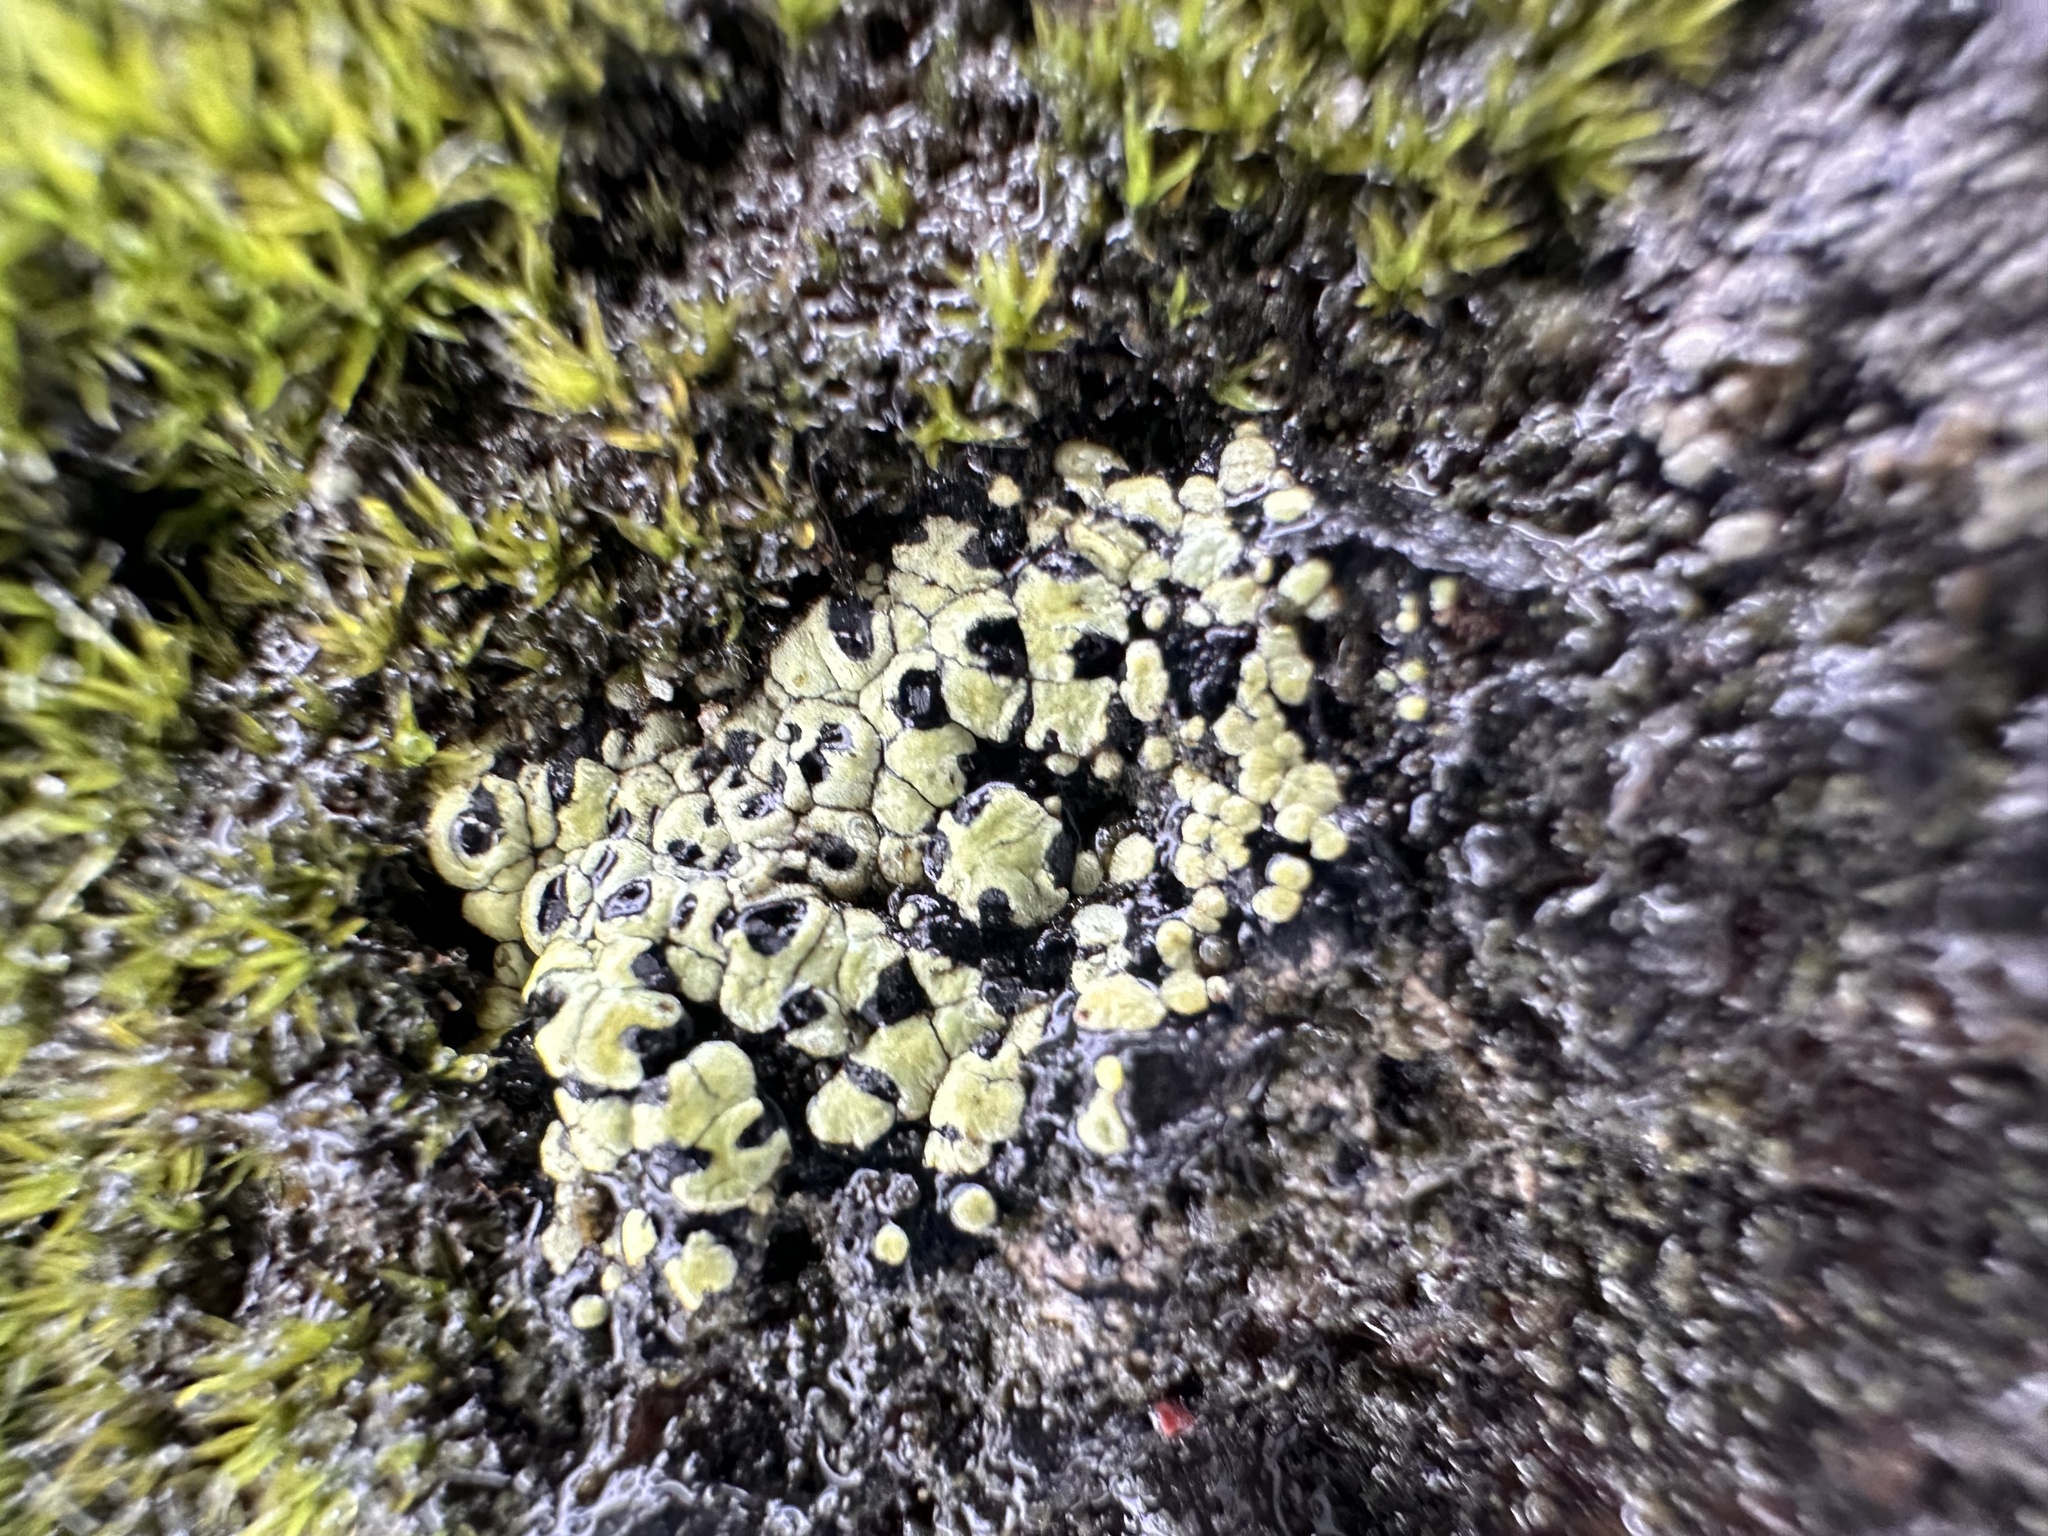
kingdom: Fungi
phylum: Ascomycota
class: Lecanoromycetes
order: Rhizocarpales
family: Rhizocarpaceae
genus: Rhizocarpon
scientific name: Rhizocarpon lecanorinum
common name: Crescent map lichen
